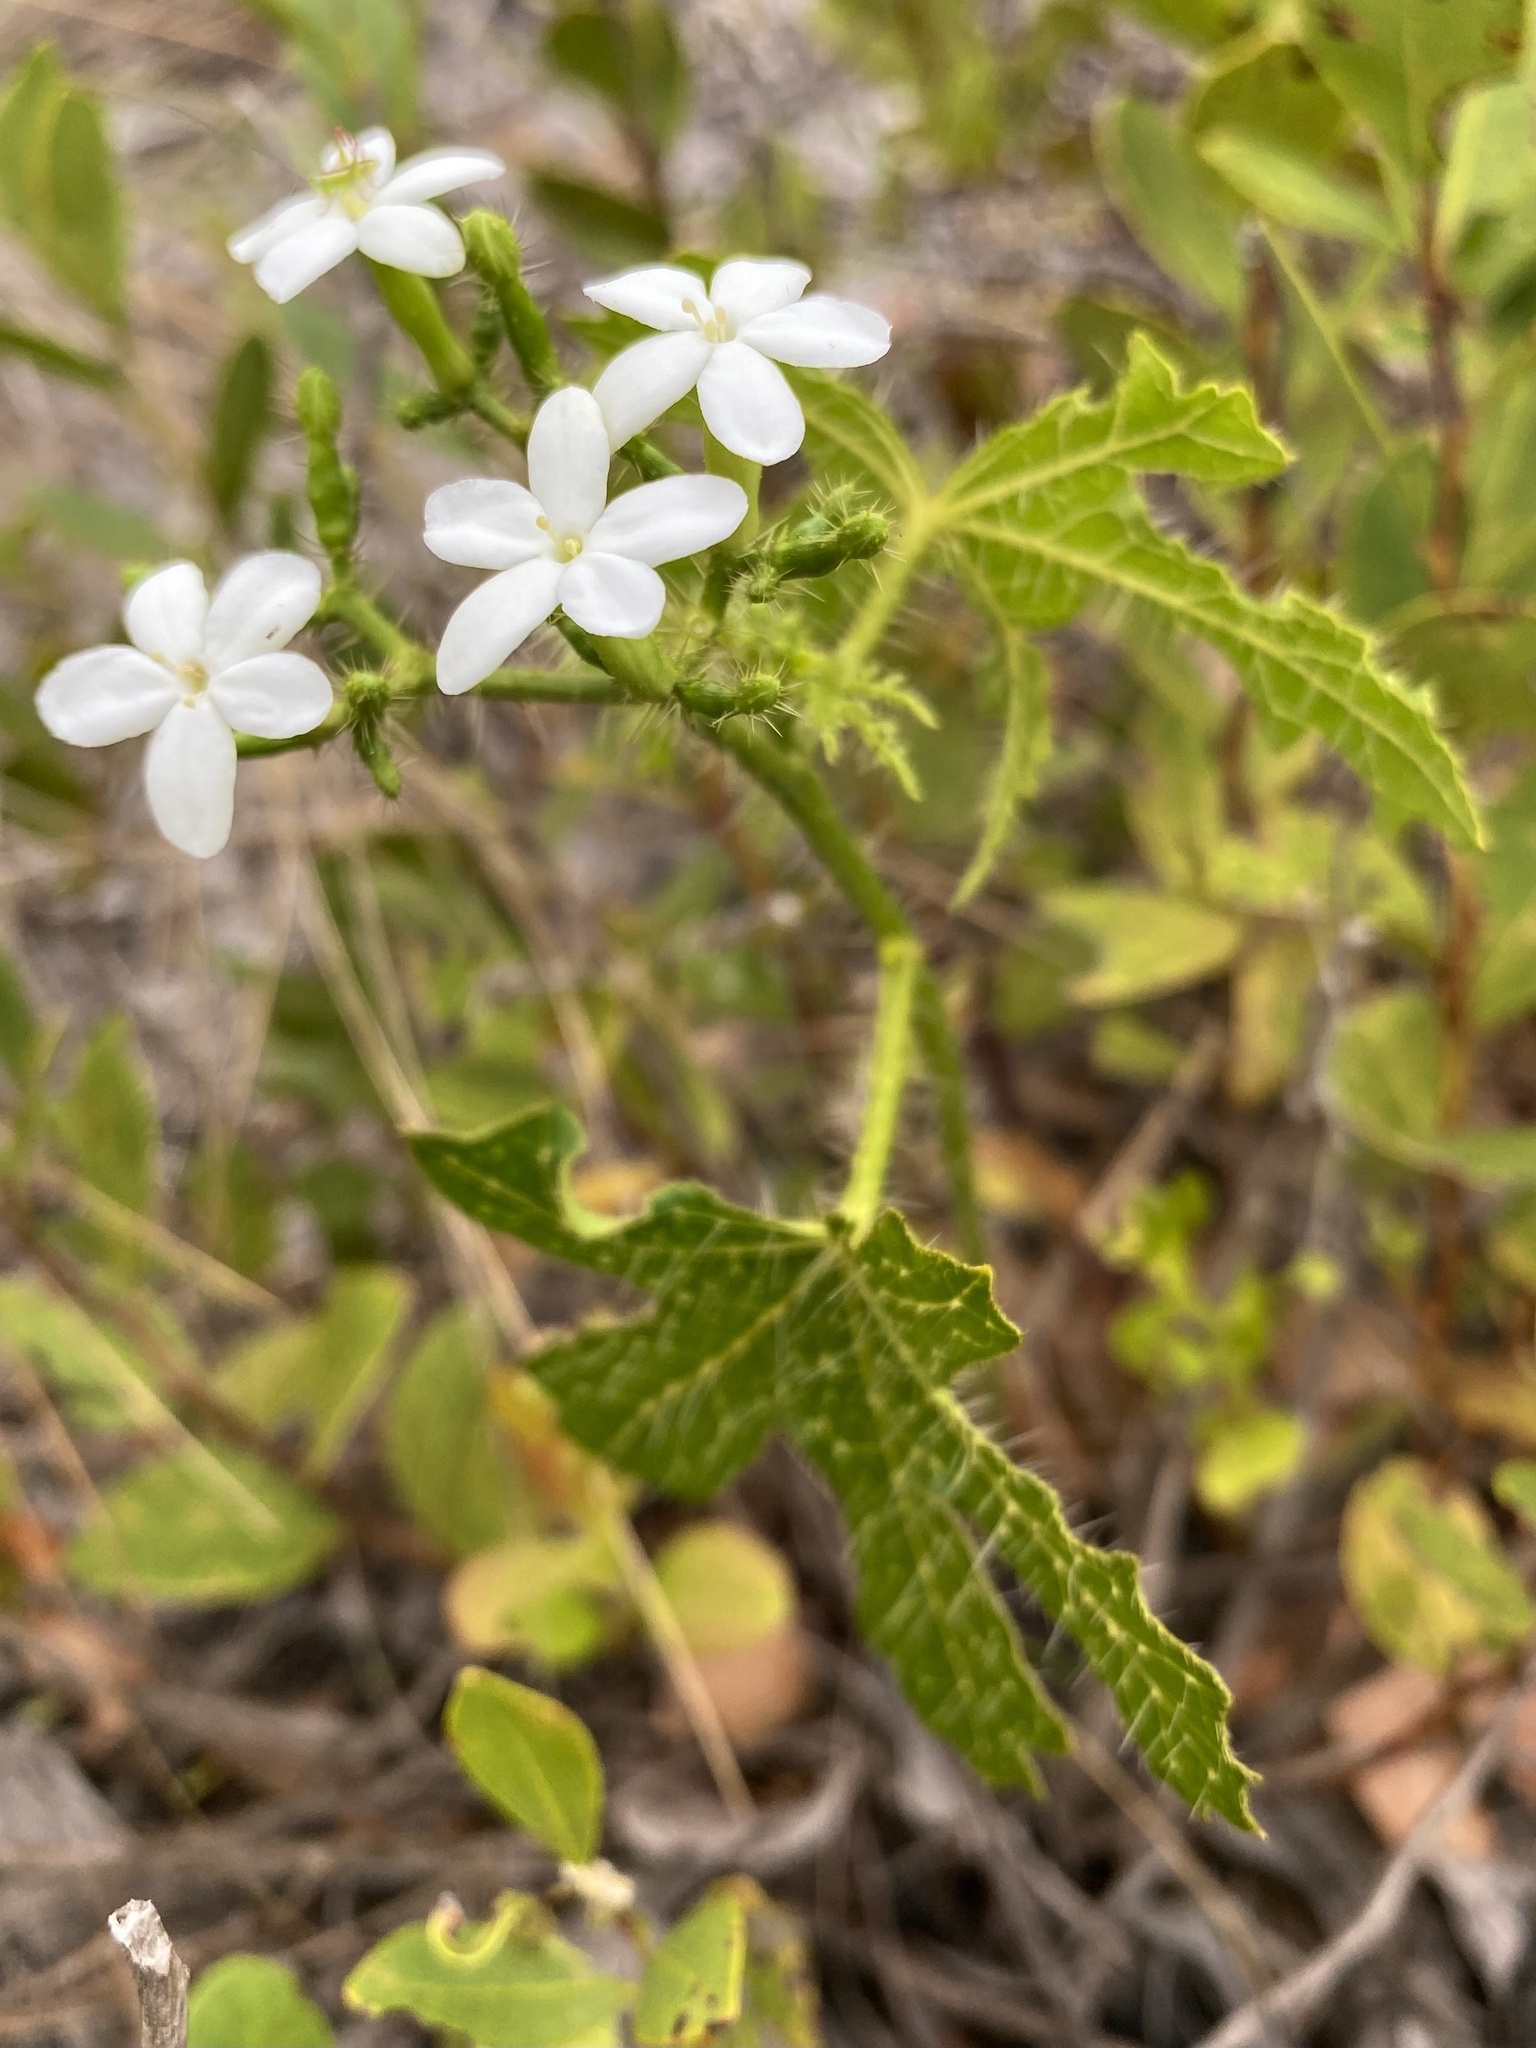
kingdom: Plantae
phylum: Tracheophyta
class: Magnoliopsida
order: Malpighiales
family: Euphorbiaceae
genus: Cnidoscolus
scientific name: Cnidoscolus stimulosus
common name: Bull-nettle
